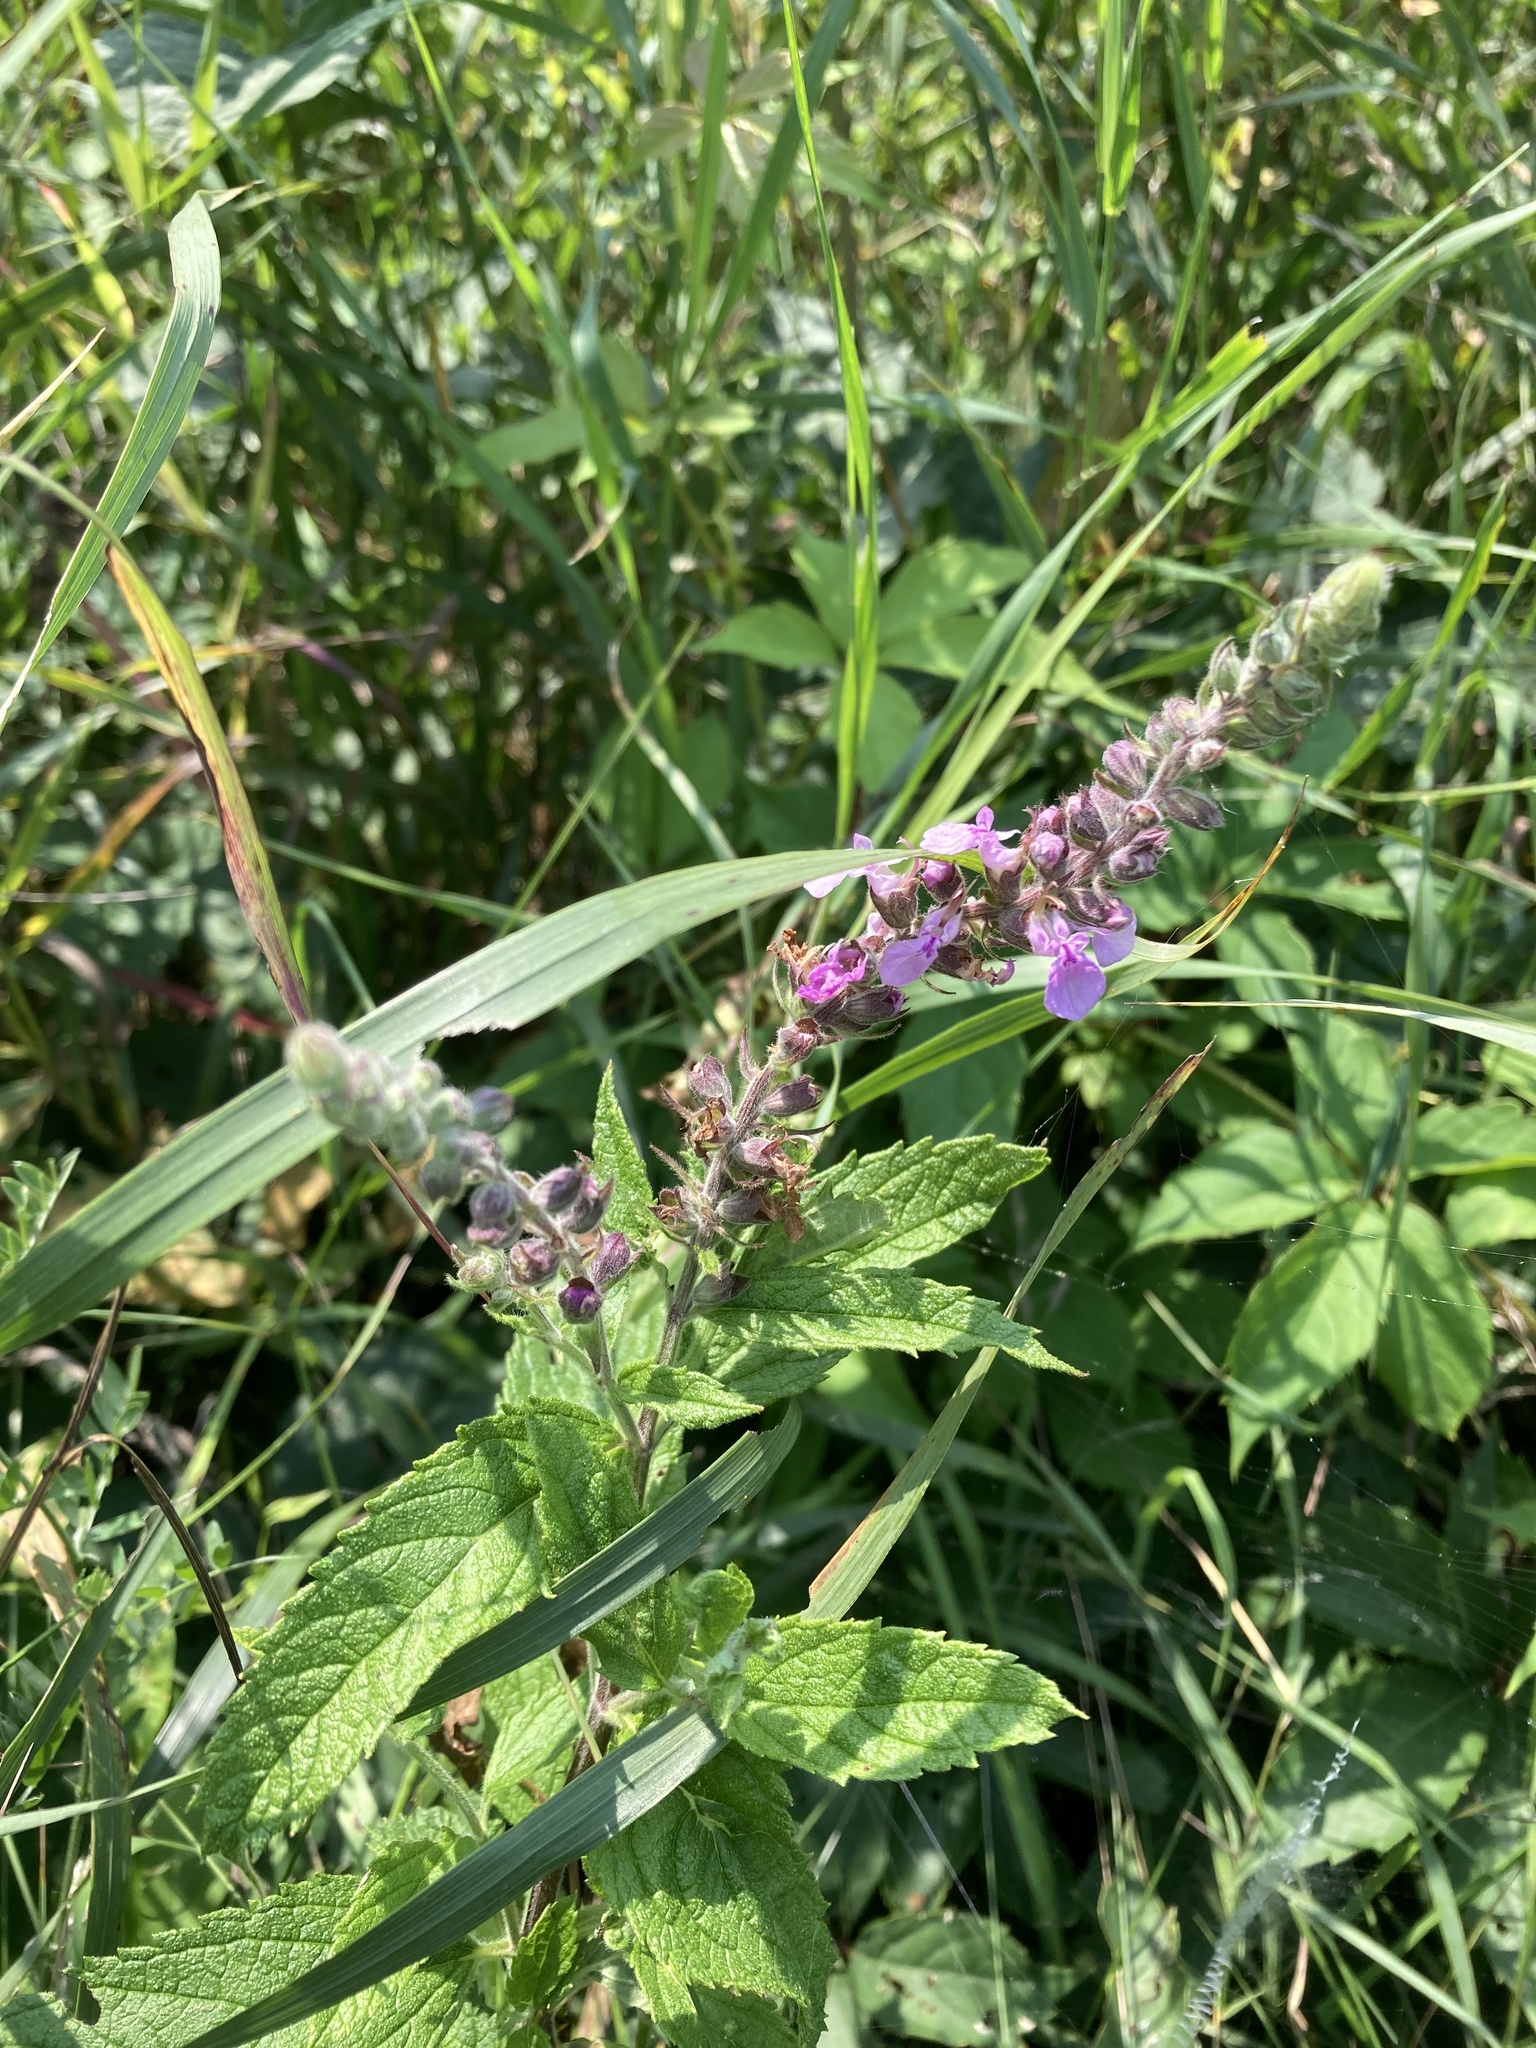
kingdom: Plantae
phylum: Tracheophyta
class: Magnoliopsida
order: Lamiales
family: Lamiaceae
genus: Teucrium
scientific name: Teucrium canadense
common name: American germander
